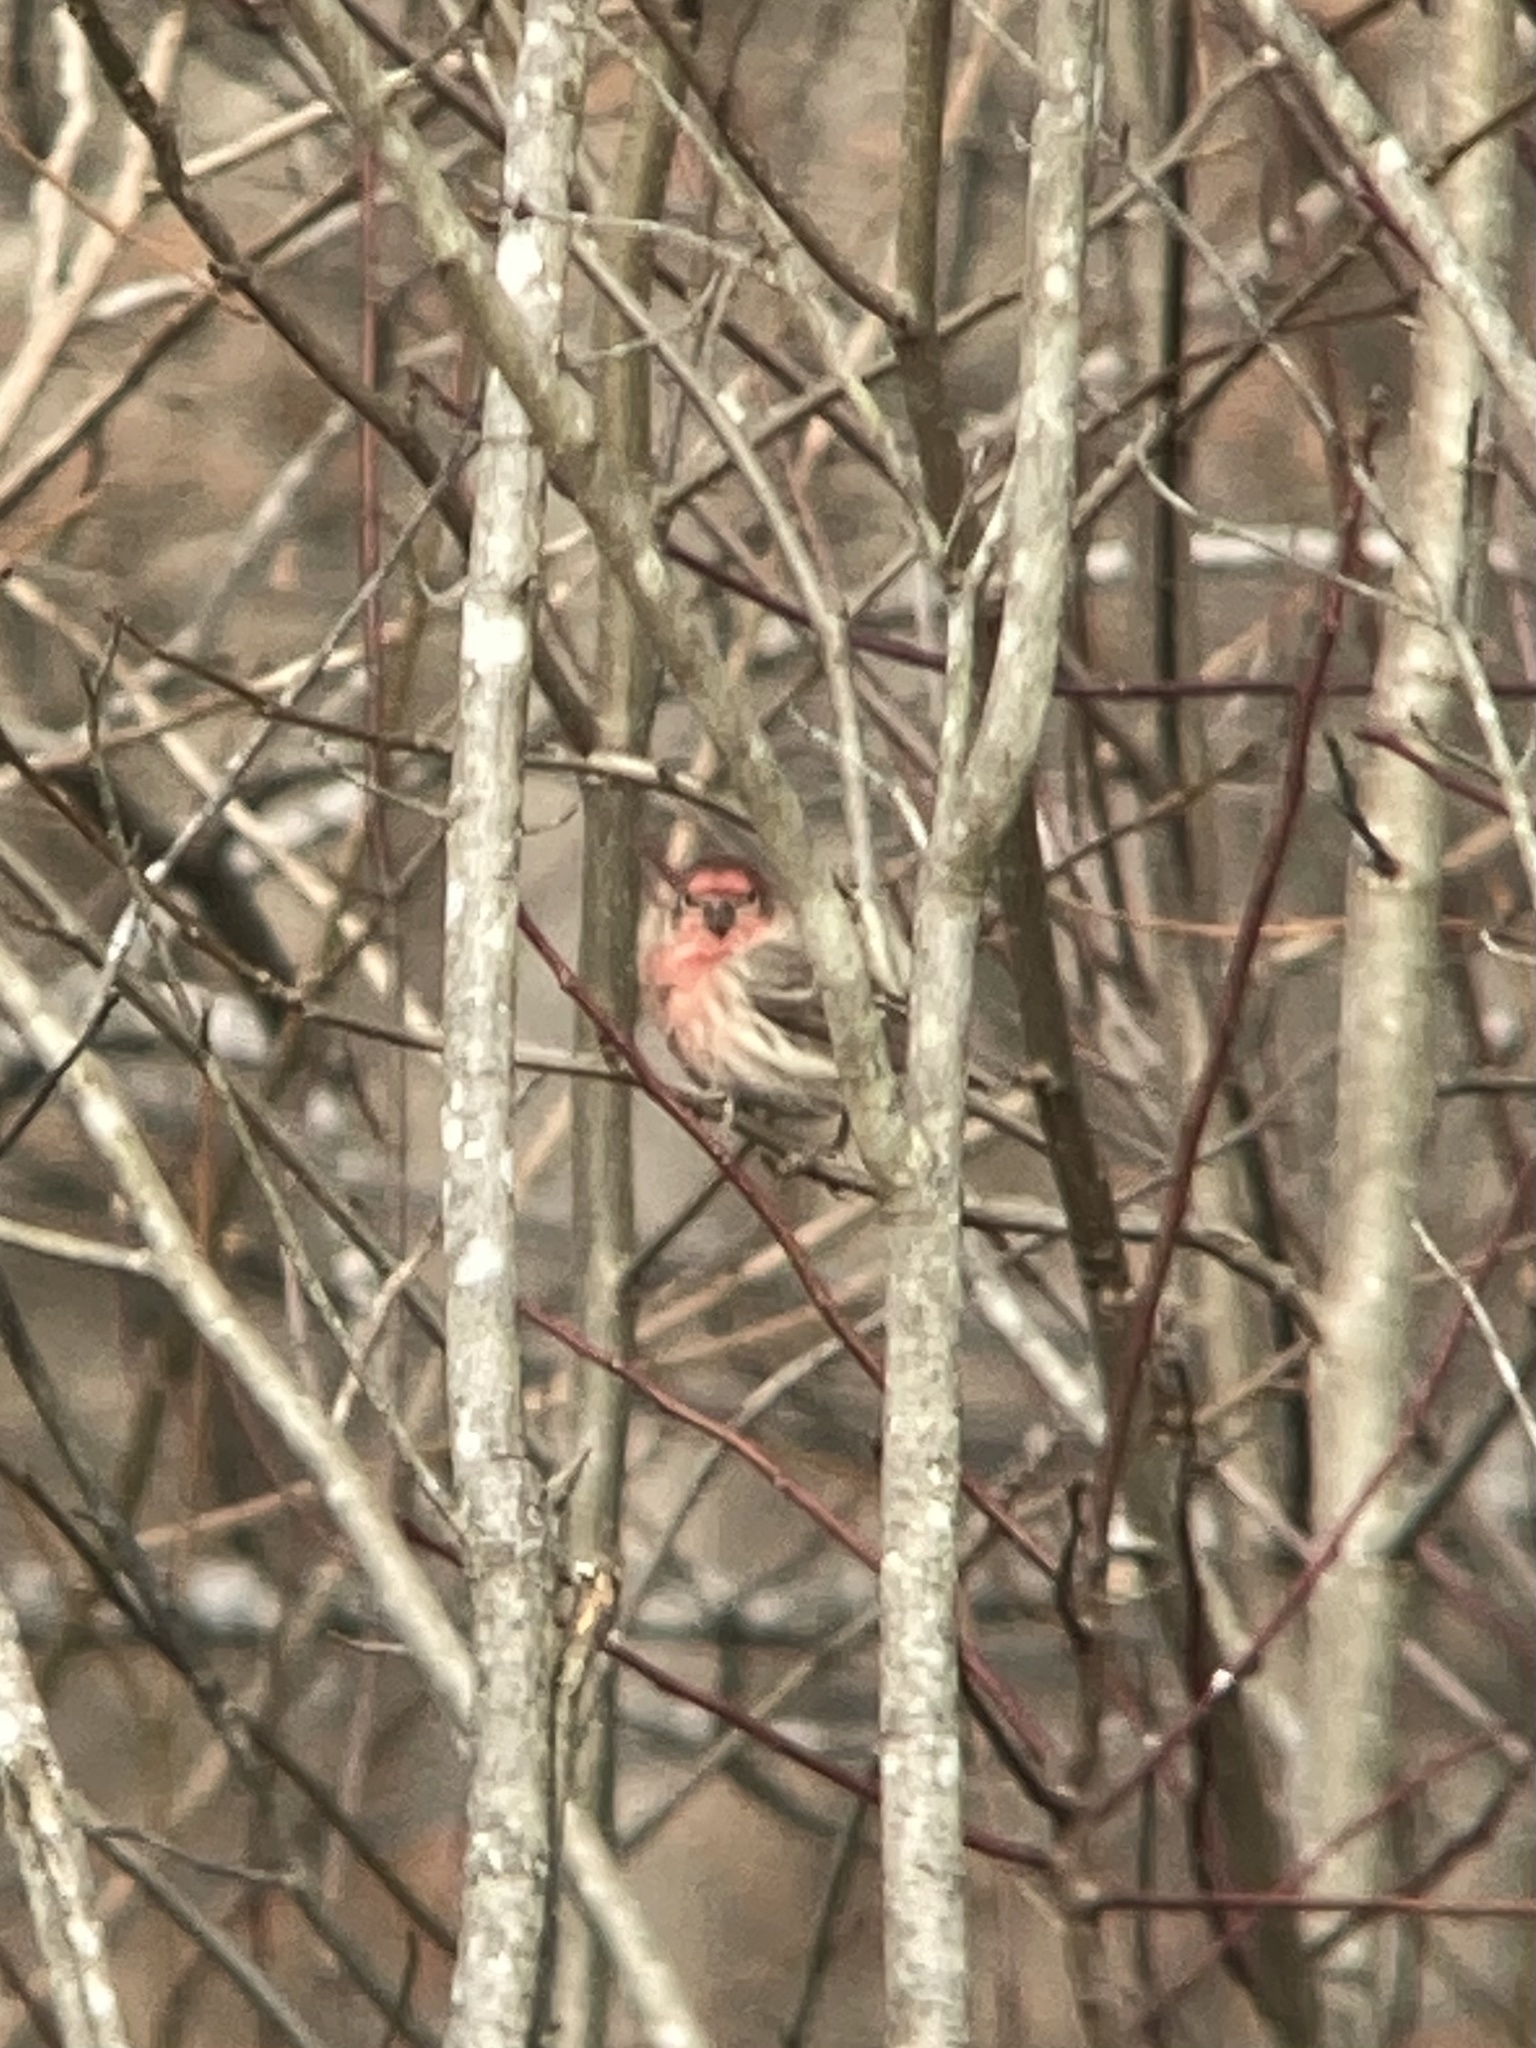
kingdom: Animalia
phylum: Chordata
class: Aves
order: Passeriformes
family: Fringillidae
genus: Haemorhous
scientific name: Haemorhous mexicanus
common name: House finch
